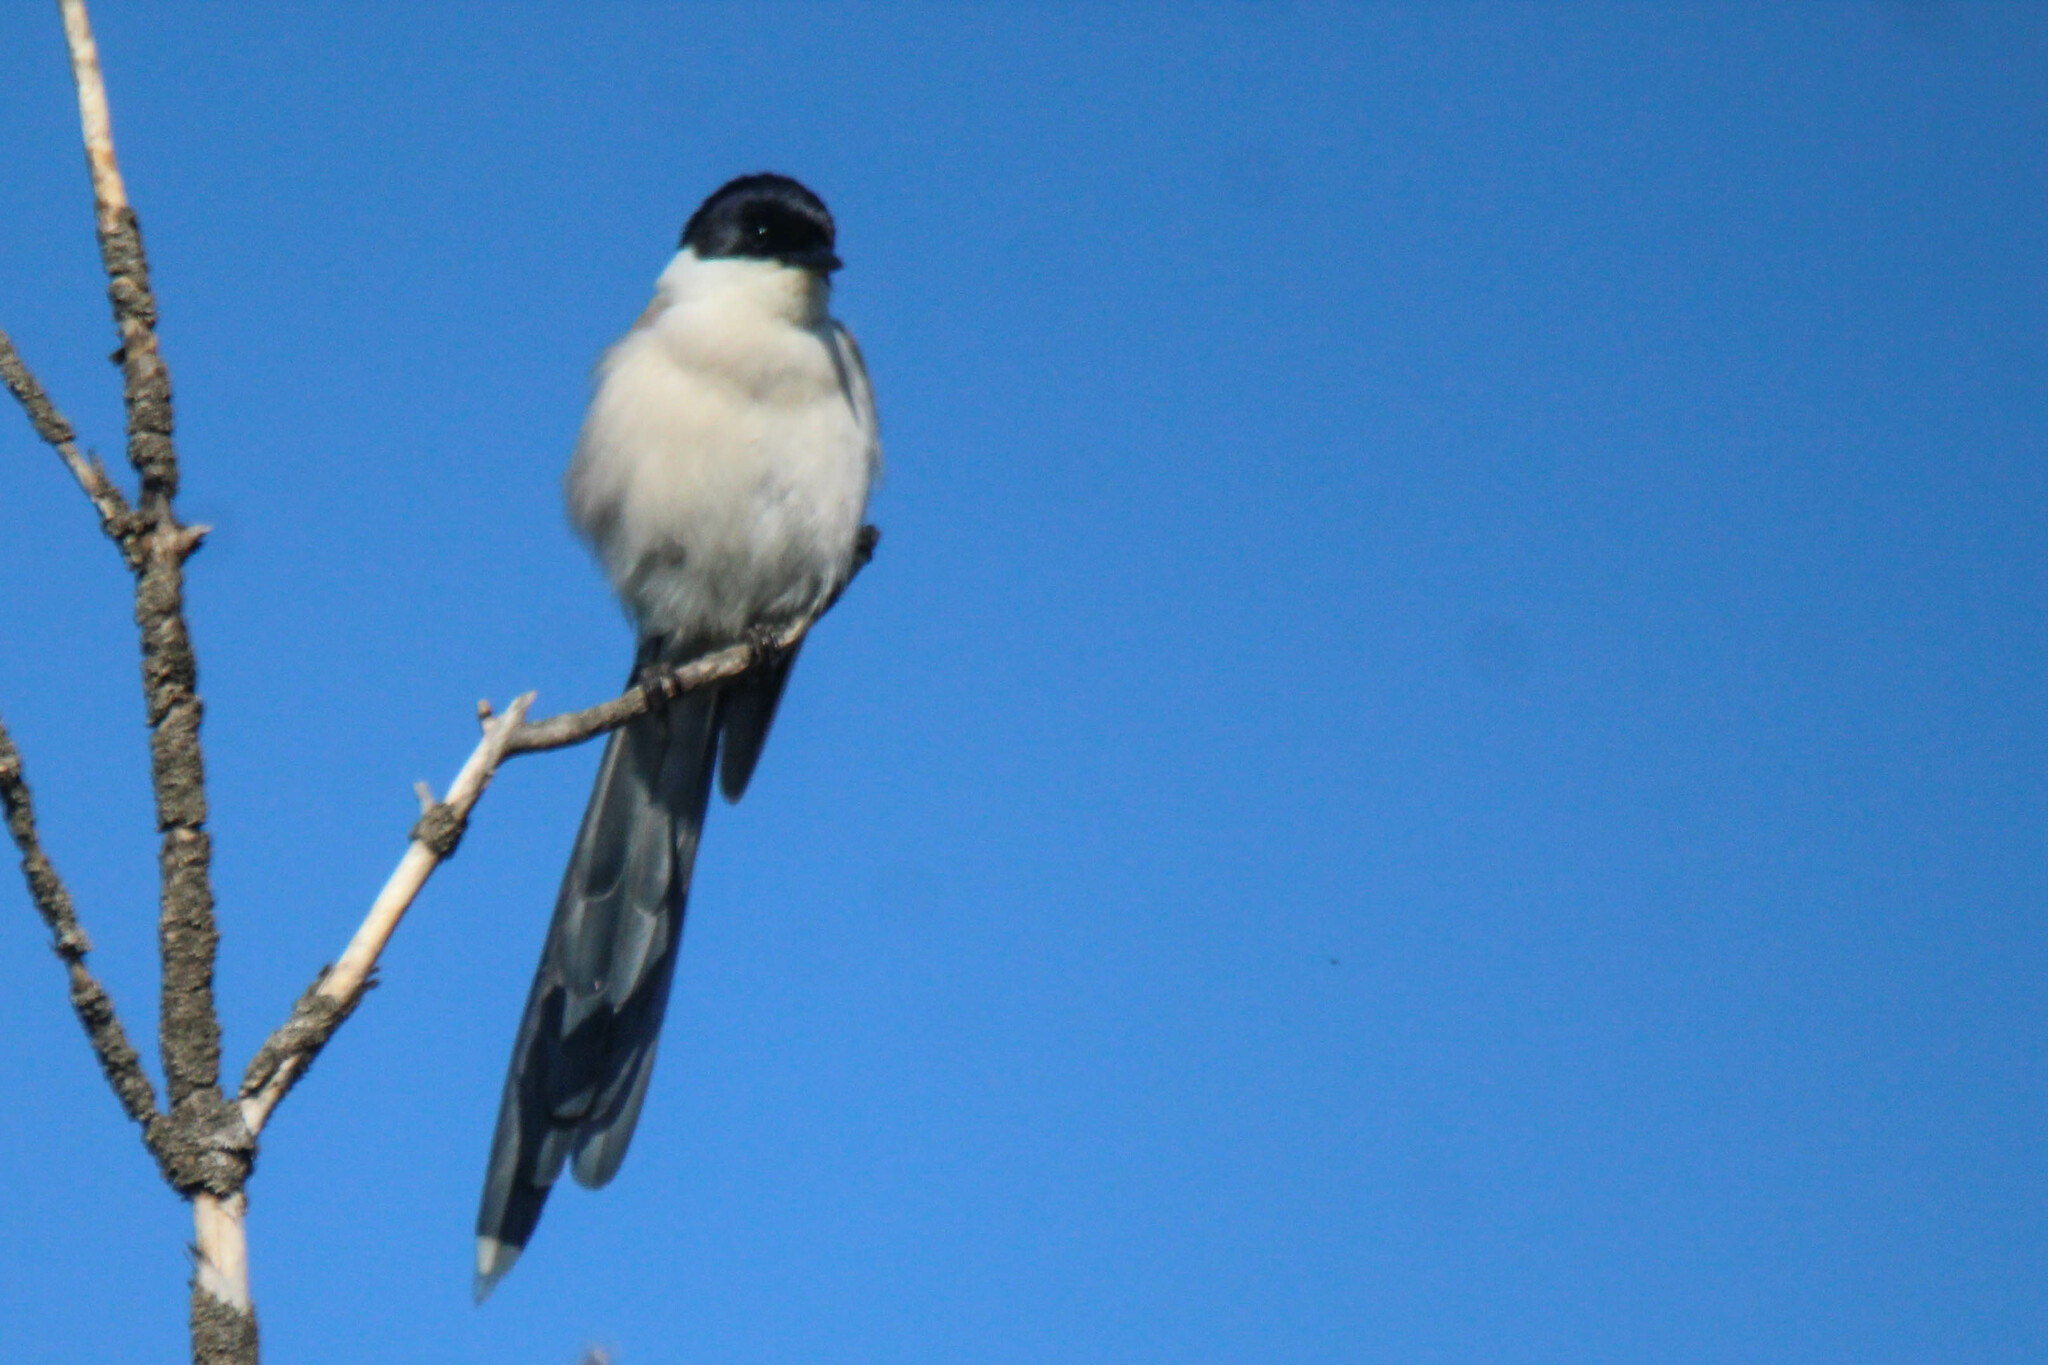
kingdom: Animalia
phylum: Chordata
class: Aves
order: Passeriformes
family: Corvidae
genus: Cyanopica
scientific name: Cyanopica cyanus
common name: Azure-winged magpie
